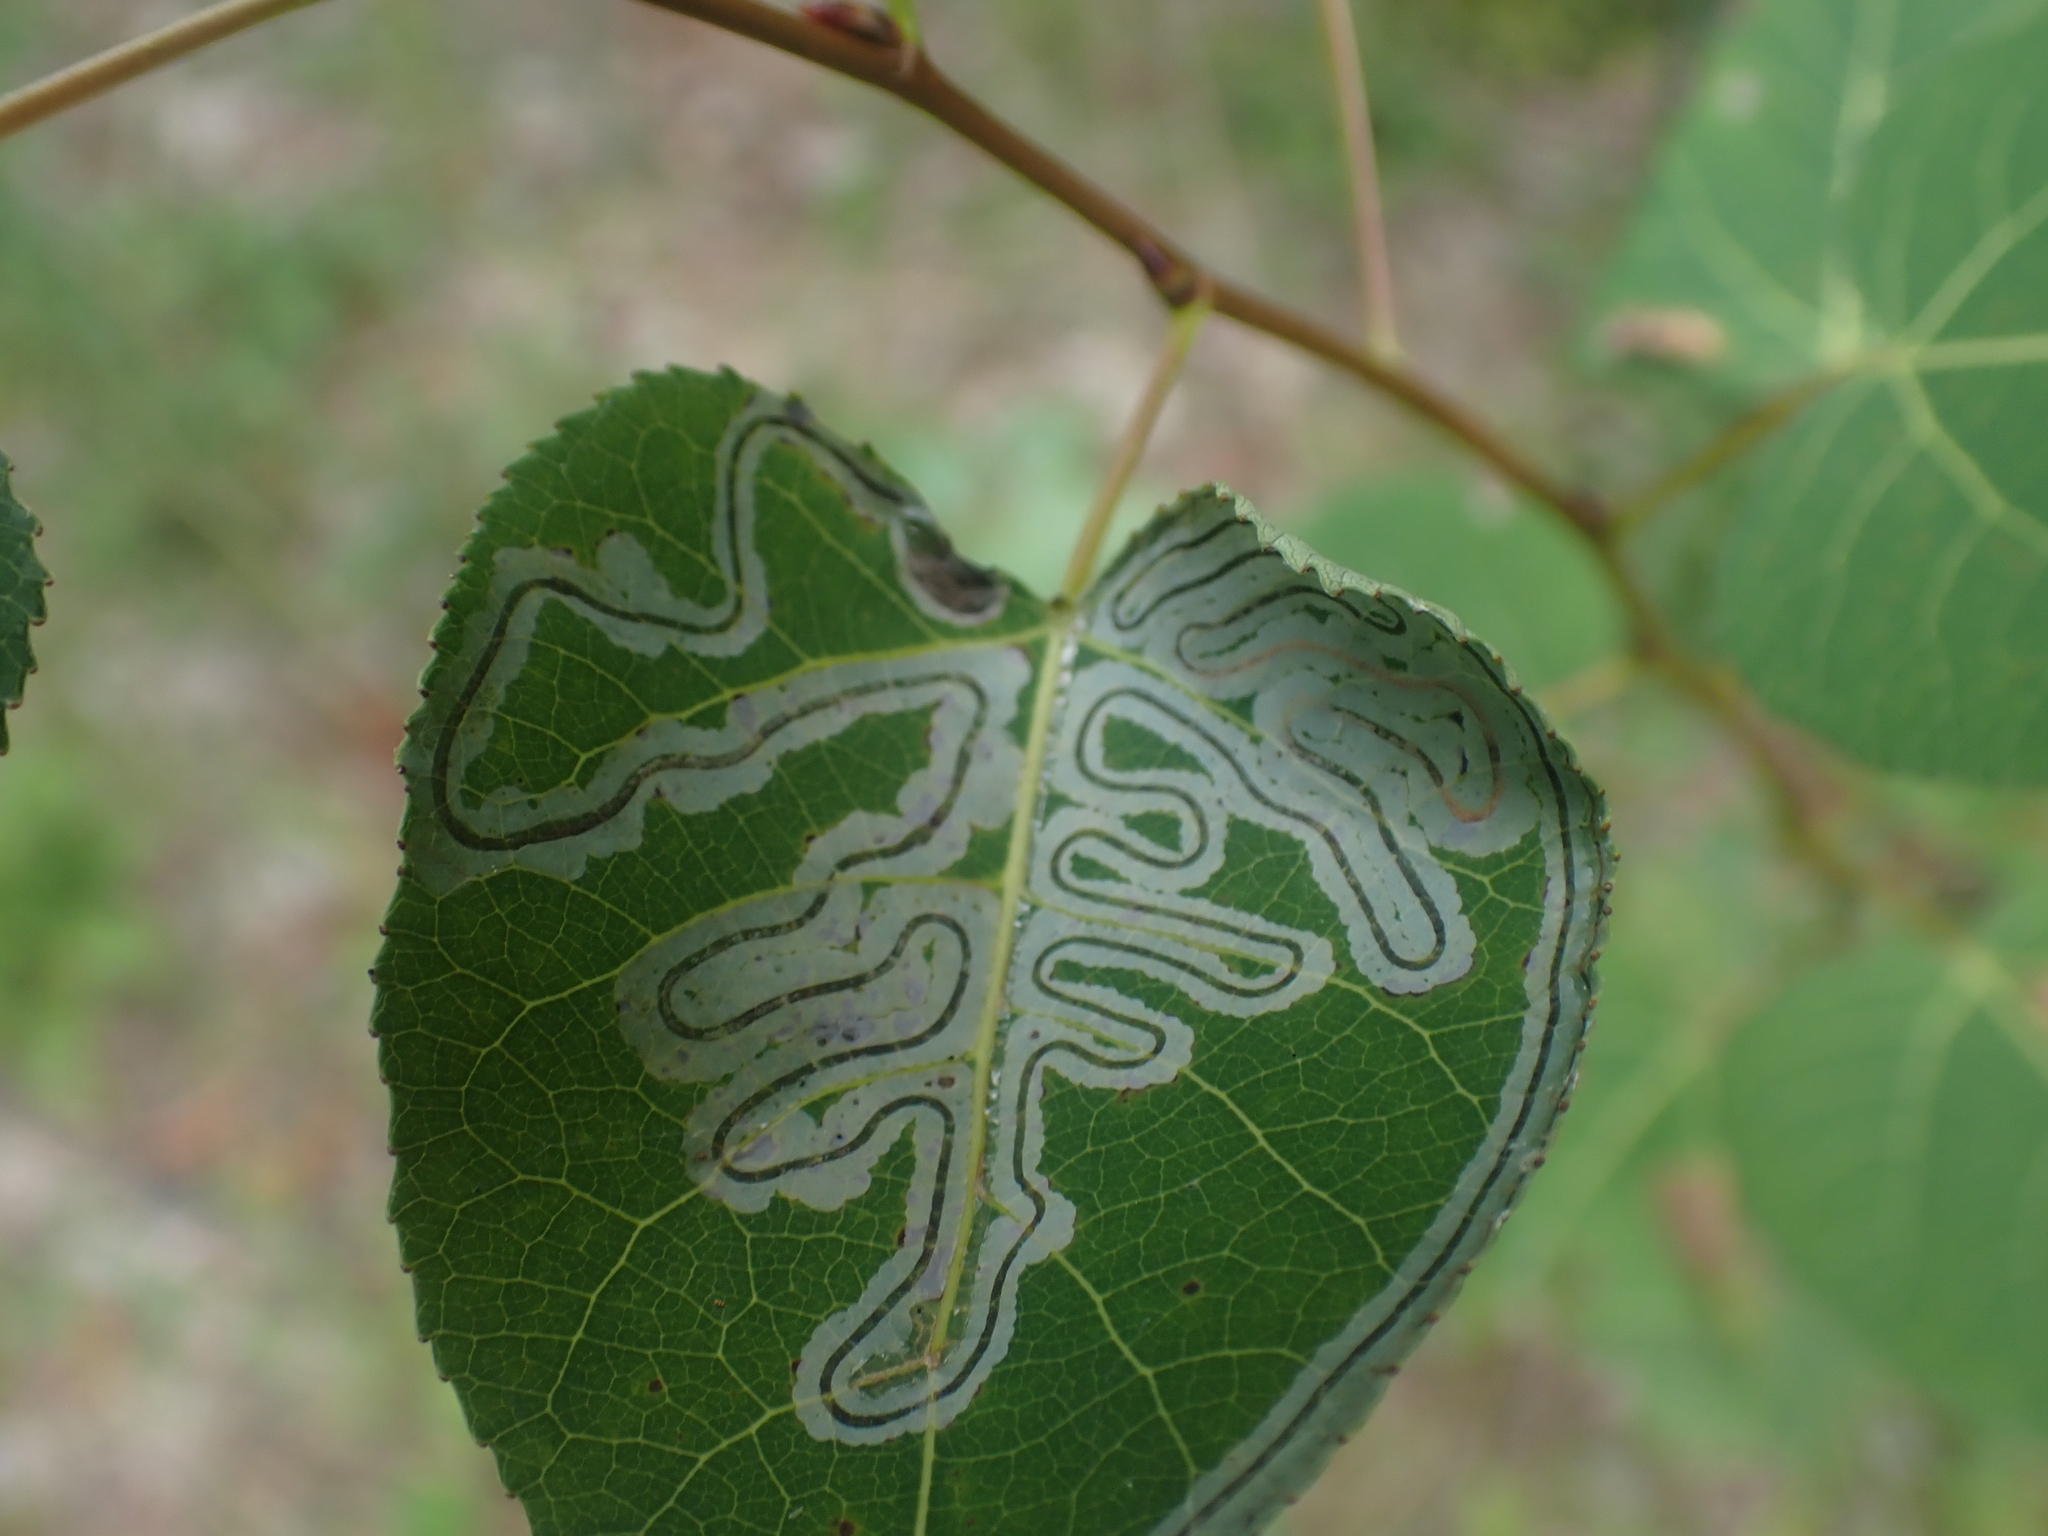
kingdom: Animalia
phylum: Arthropoda
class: Insecta
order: Lepidoptera
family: Gracillariidae
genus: Phyllocnistis
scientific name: Phyllocnistis populiella
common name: Aspen serpentine leafminer moth
